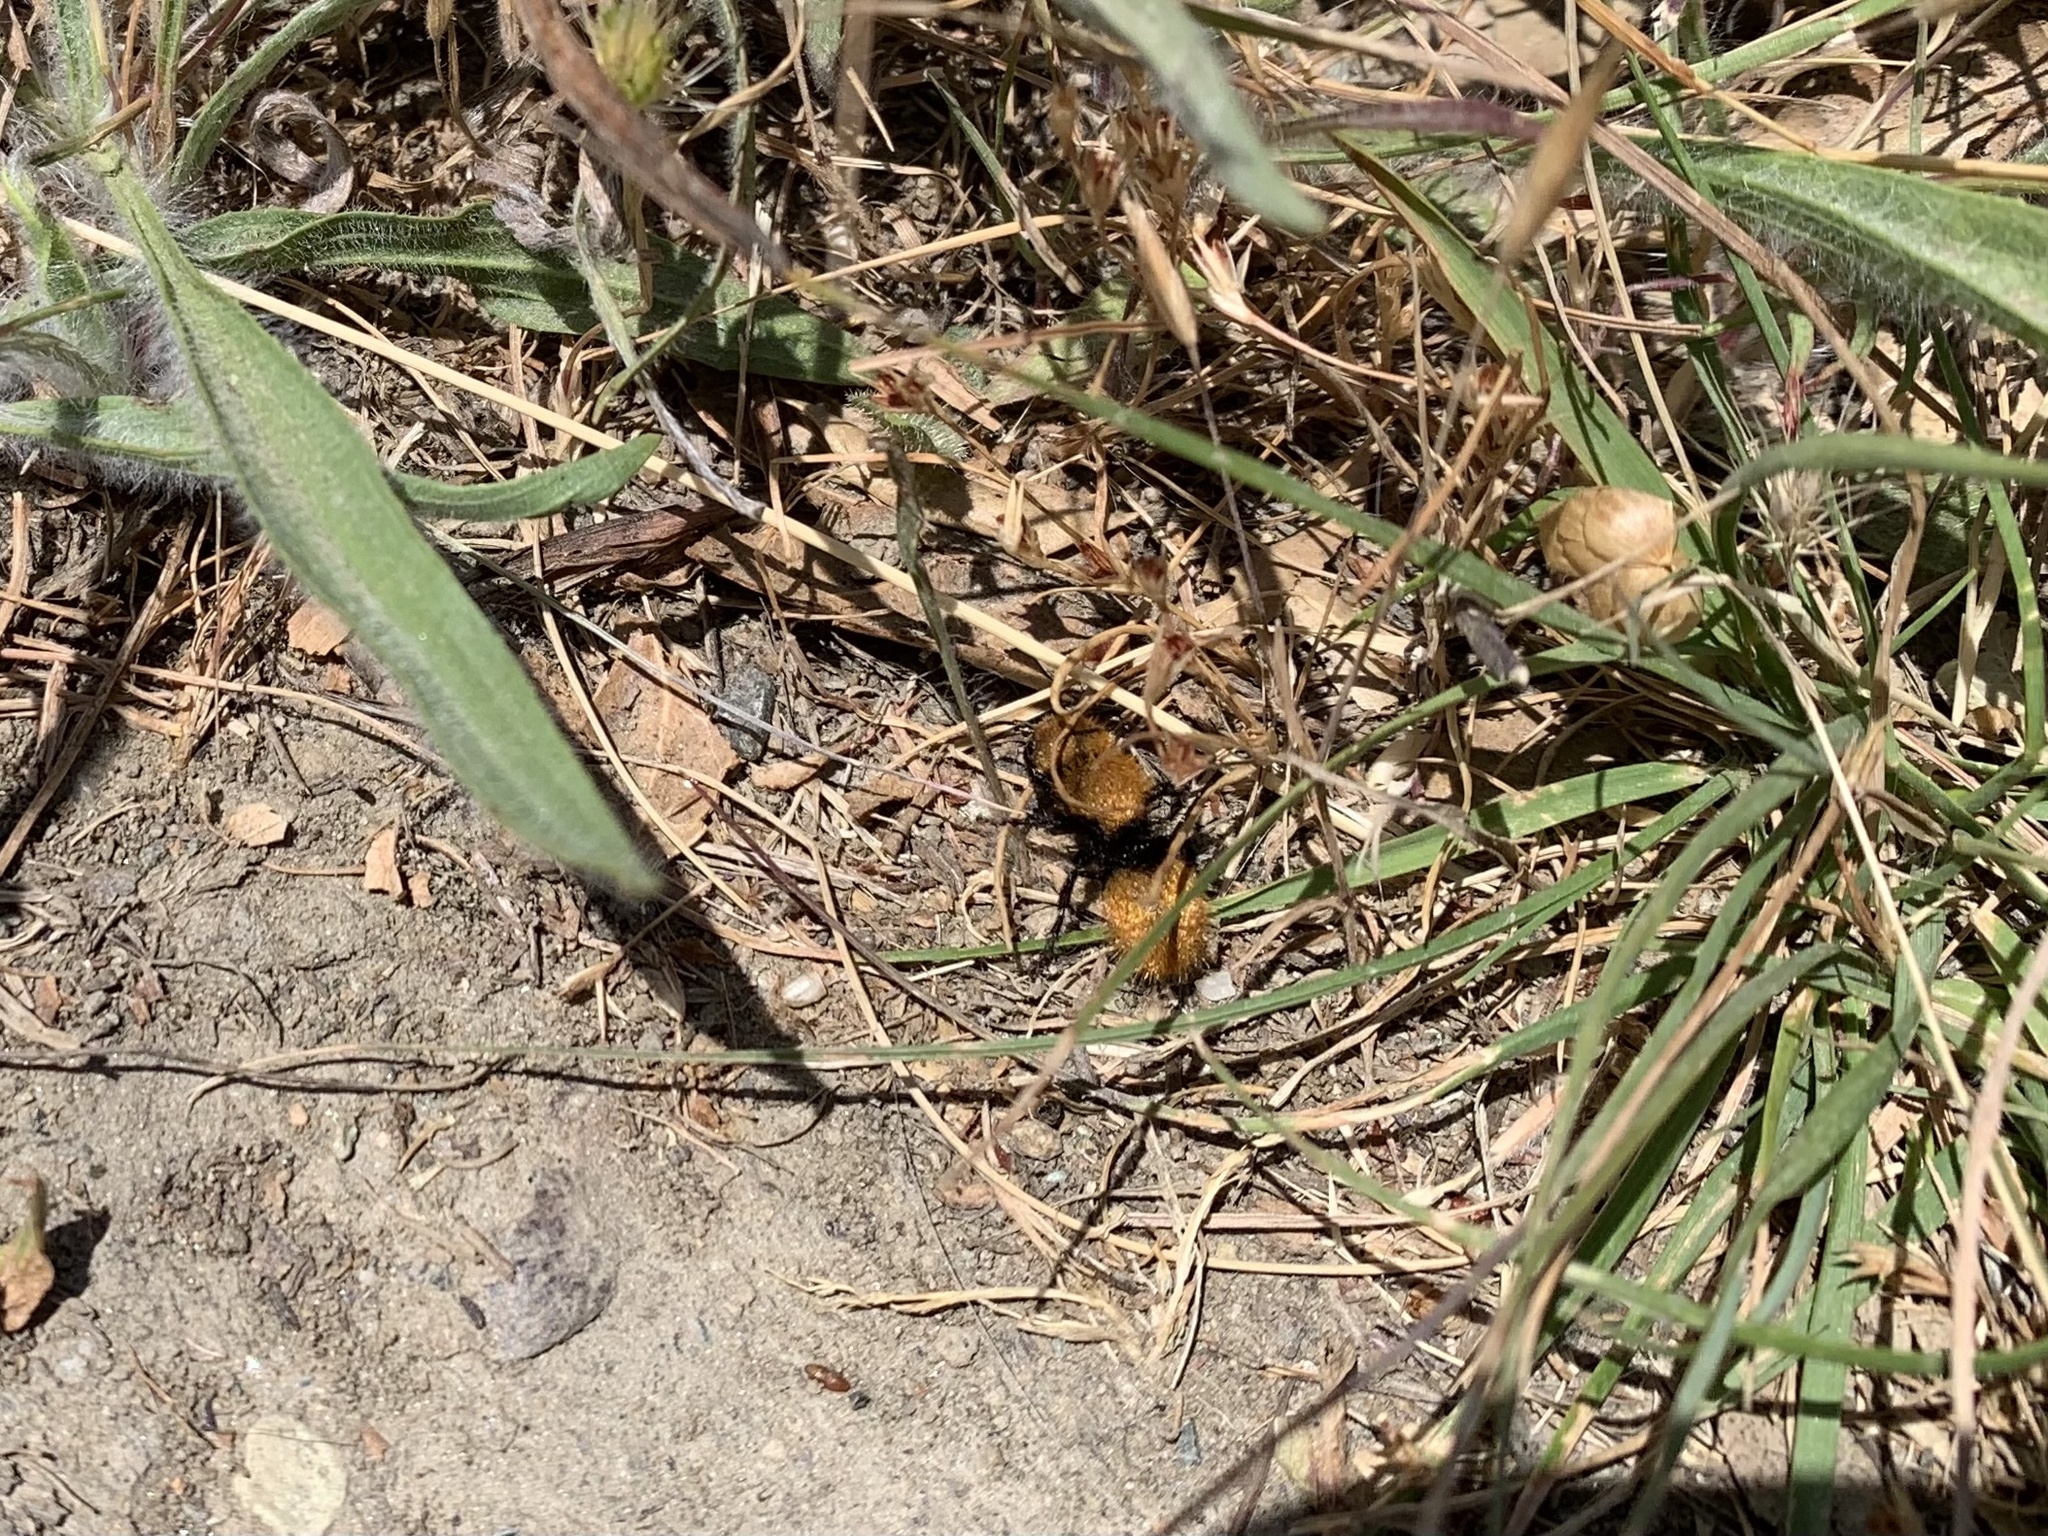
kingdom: Animalia
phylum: Arthropoda
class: Insecta
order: Hymenoptera
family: Mutillidae
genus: Dasymutilla
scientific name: Dasymutilla
